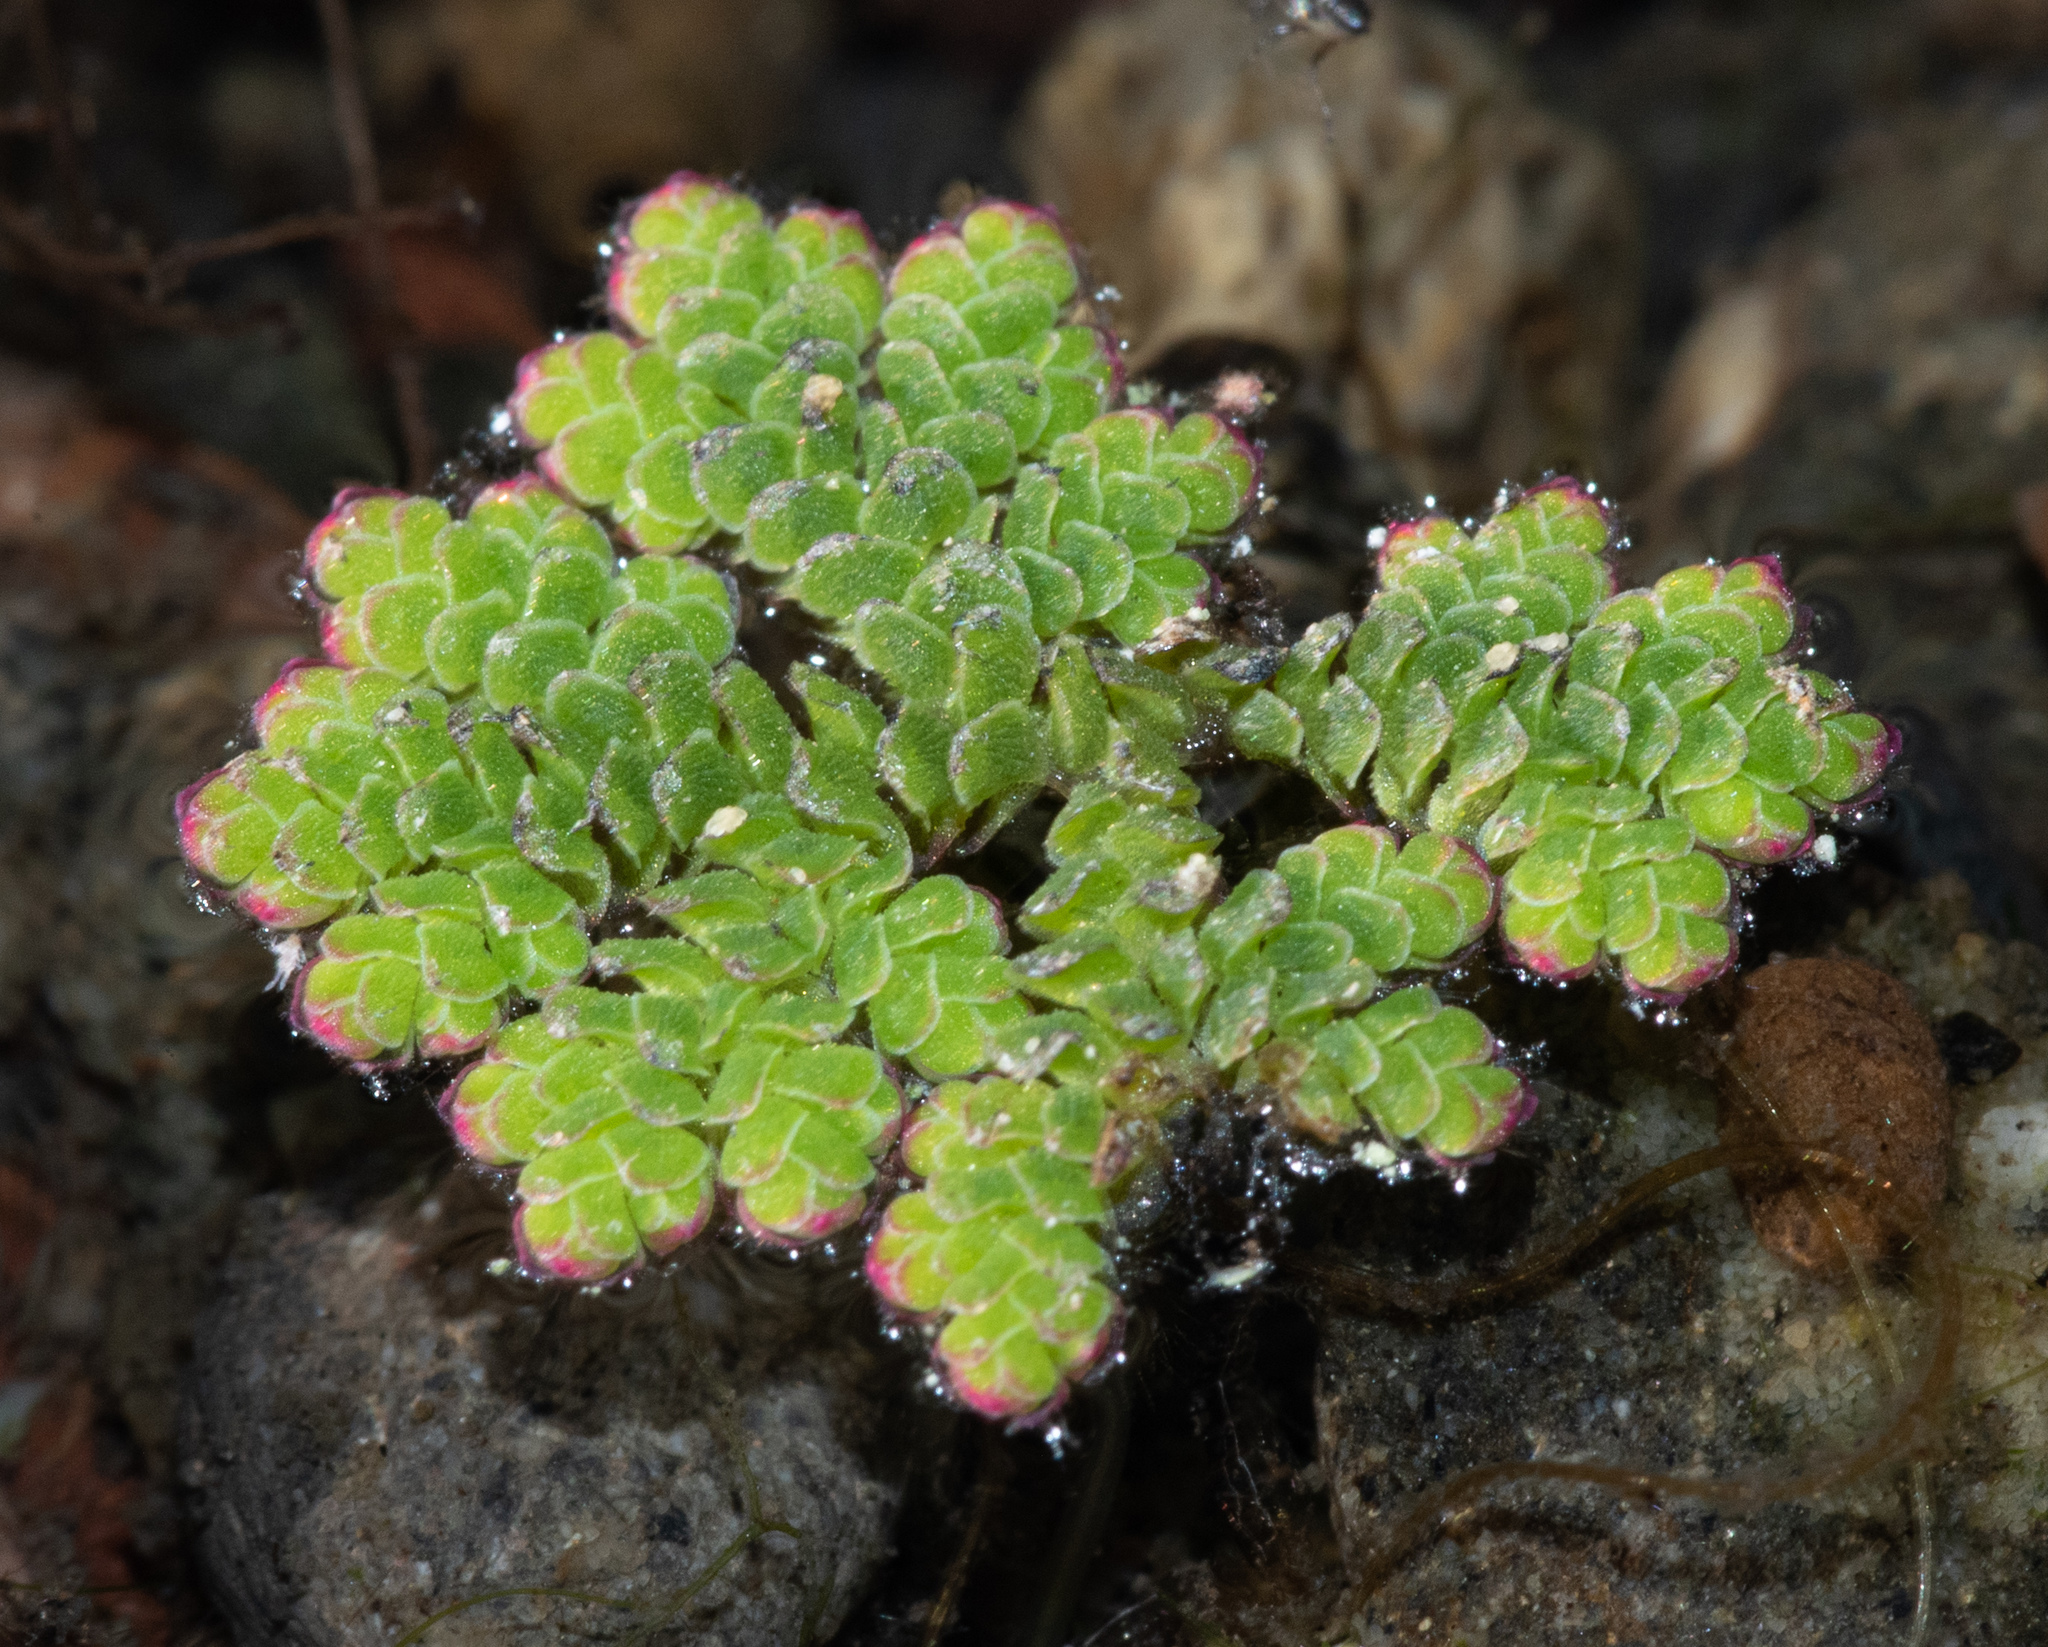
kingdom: Plantae
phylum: Tracheophyta
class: Polypodiopsida
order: Salviniales
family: Salviniaceae
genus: Azolla
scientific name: Azolla filiculoides
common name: Water fern
